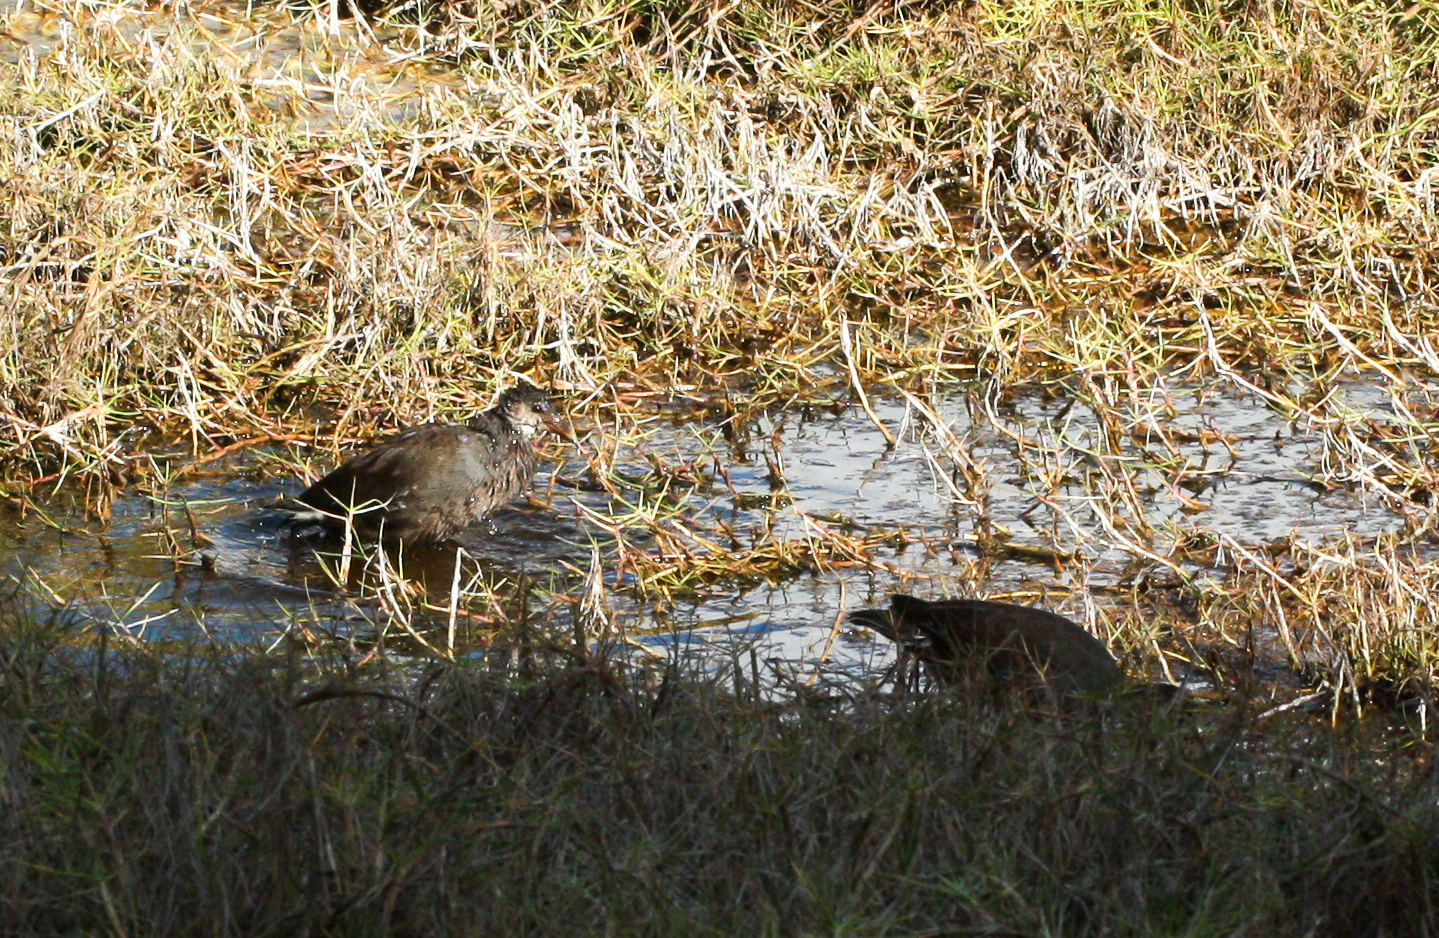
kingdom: Animalia
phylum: Chordata
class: Aves
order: Gruiformes
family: Rallidae
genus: Gallinula
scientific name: Gallinula chloropus
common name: Common moorhen
